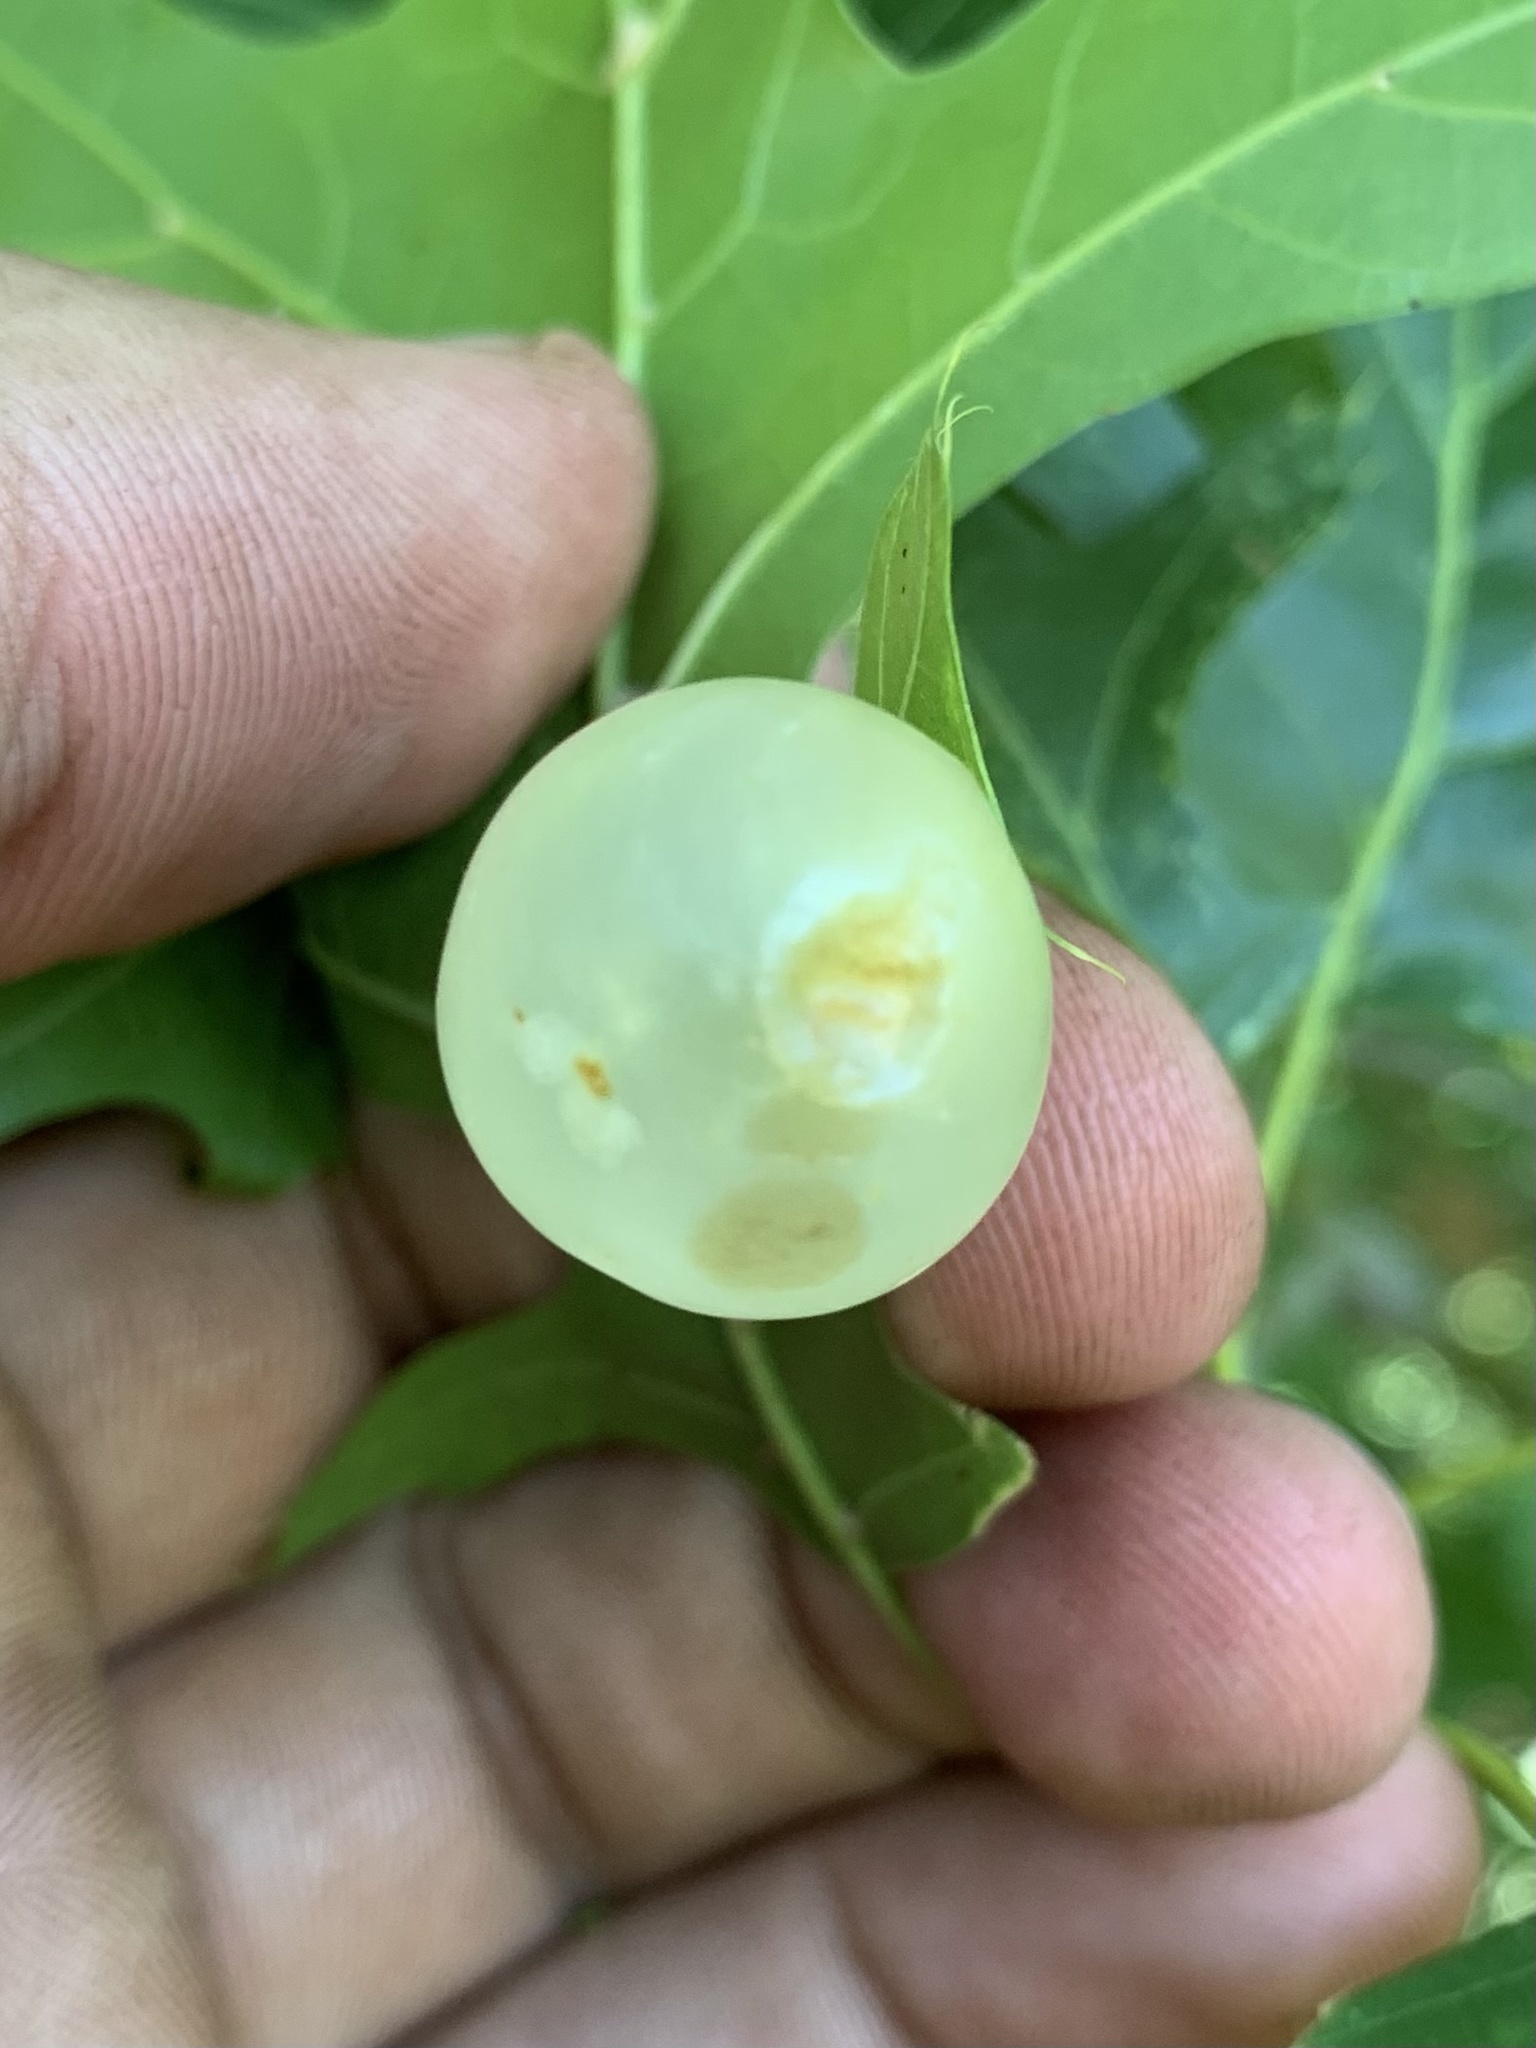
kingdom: Animalia
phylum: Arthropoda
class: Insecta
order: Hymenoptera
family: Cynipidae
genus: Amphibolips
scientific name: Amphibolips
